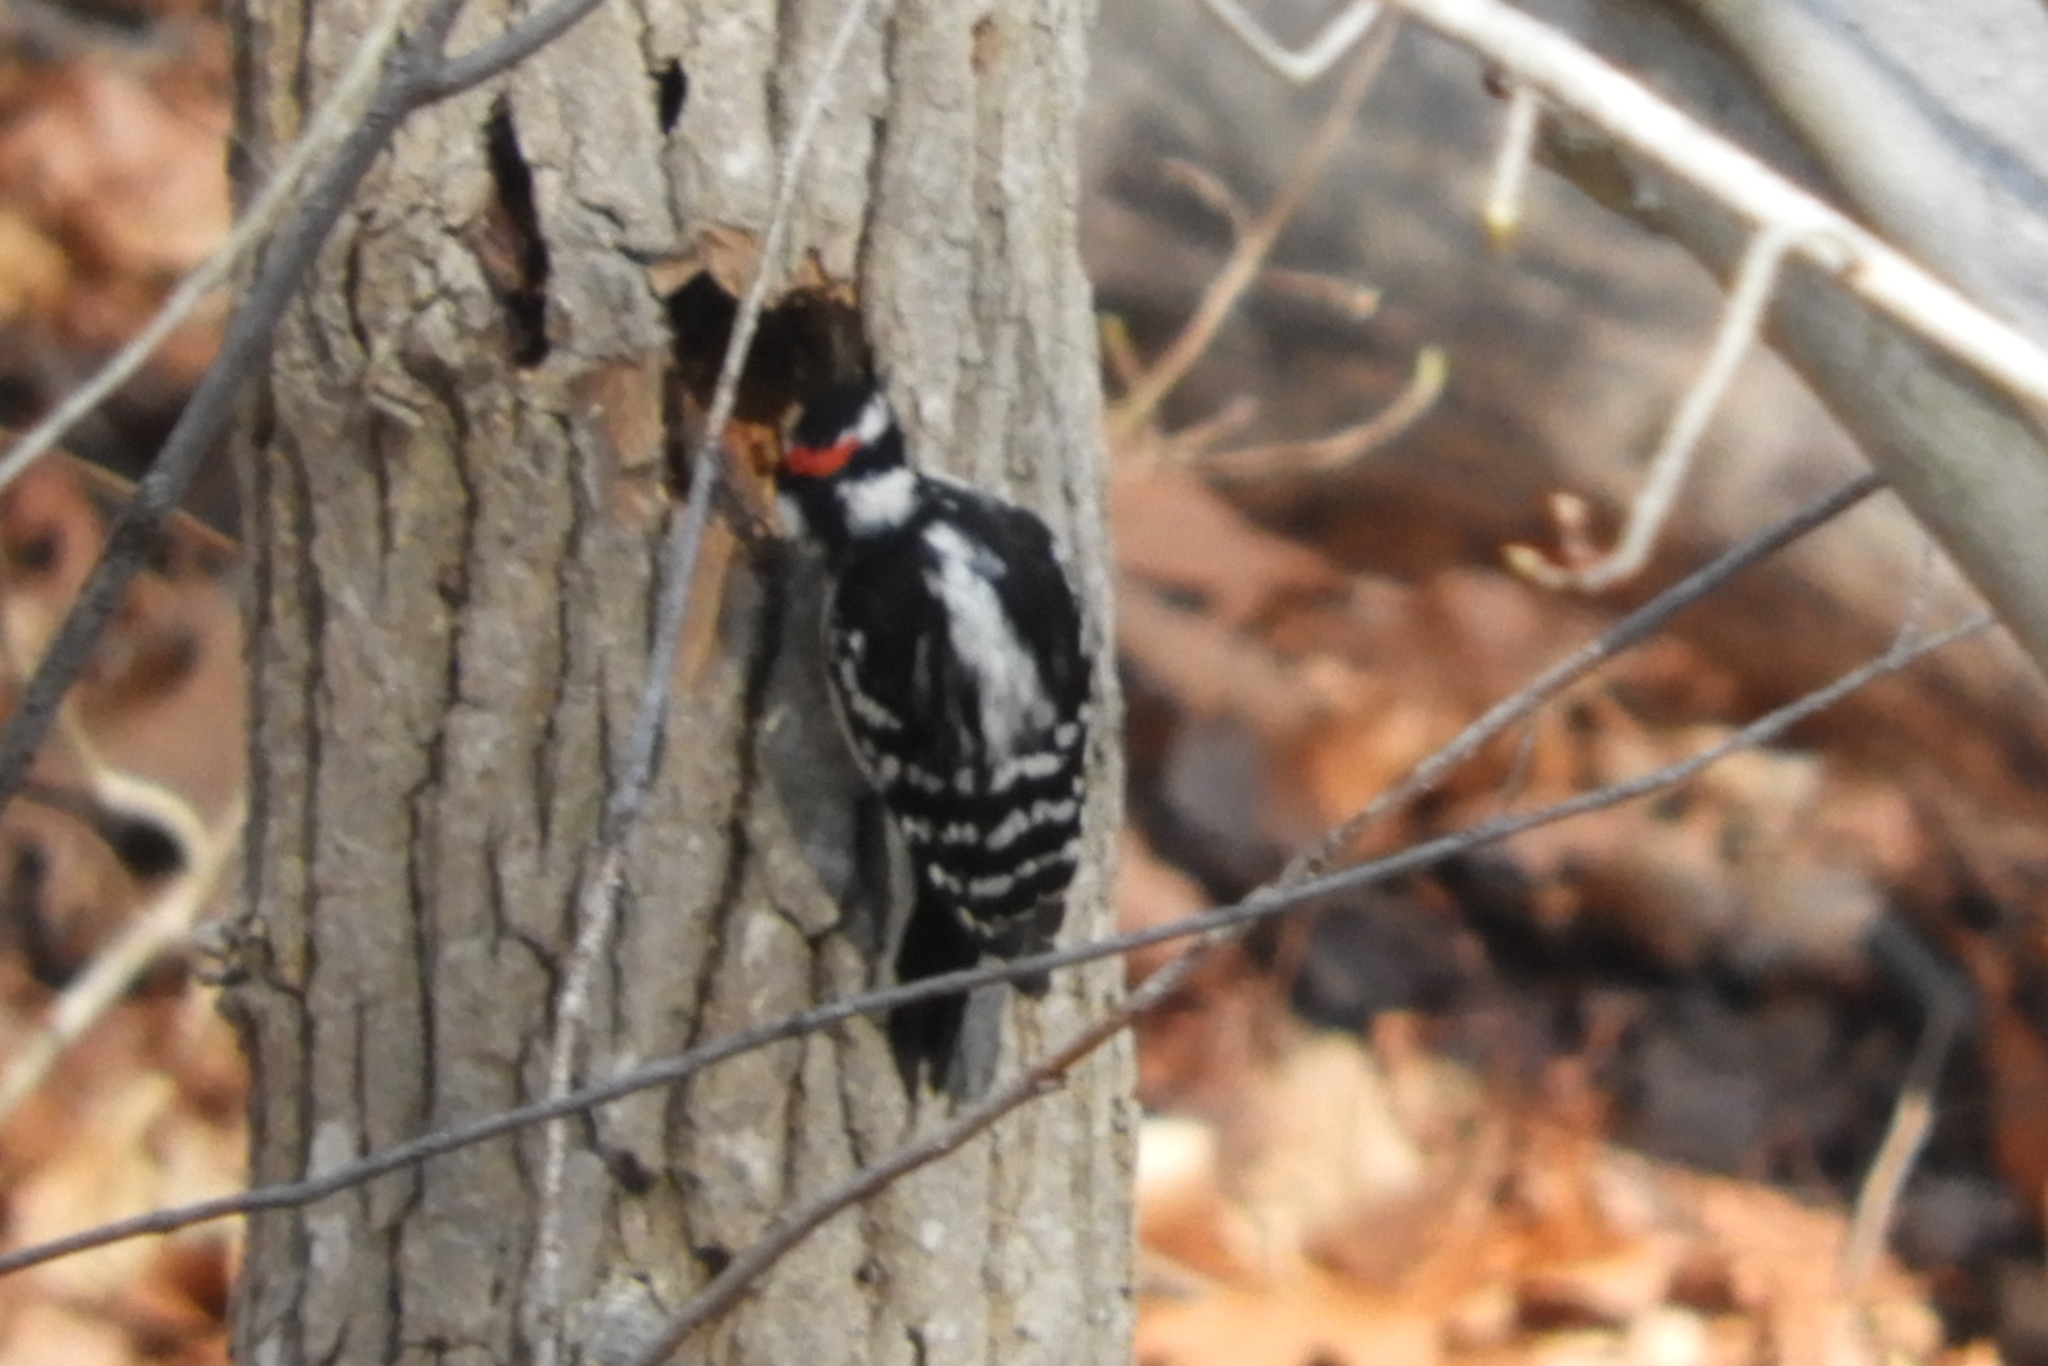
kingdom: Animalia
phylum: Chordata
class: Aves
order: Piciformes
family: Picidae
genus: Dryobates
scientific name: Dryobates pubescens
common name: Downy woodpecker
